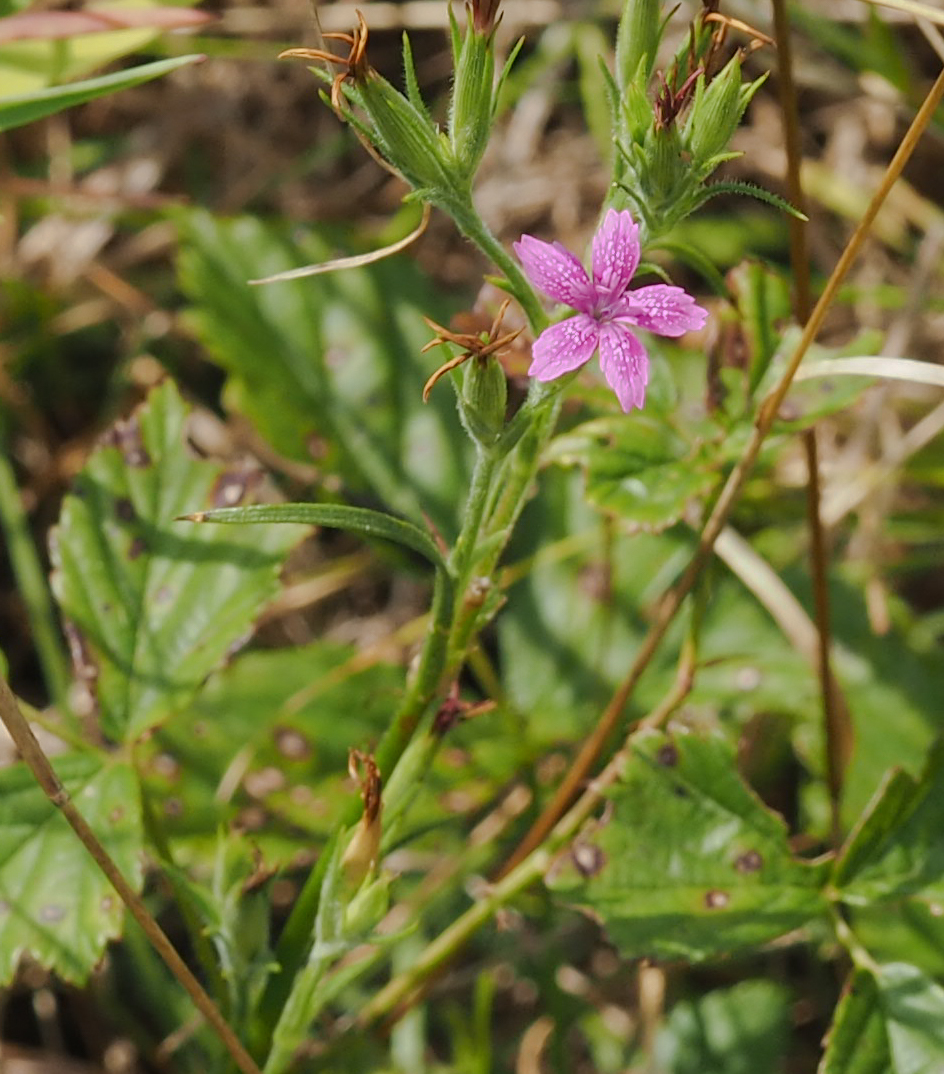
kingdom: Plantae
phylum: Tracheophyta
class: Magnoliopsida
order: Caryophyllales
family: Caryophyllaceae
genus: Dianthus
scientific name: Dianthus armeria
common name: Deptford pink
